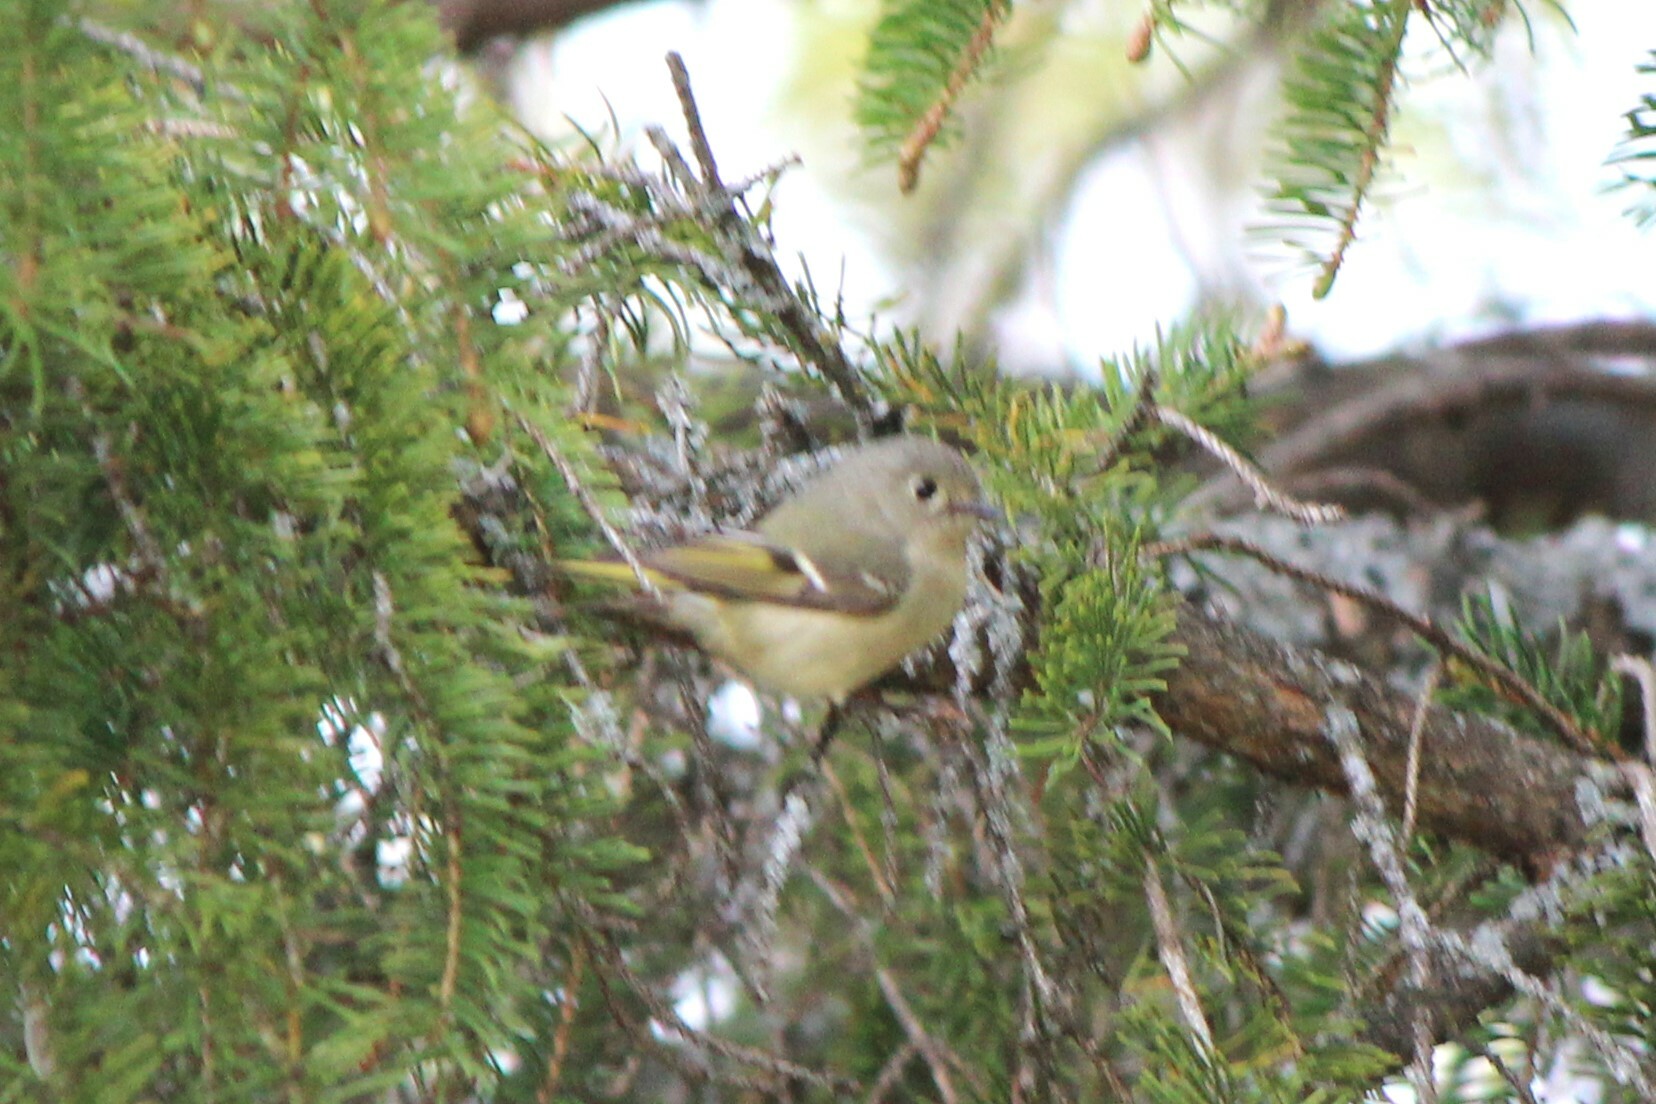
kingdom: Animalia
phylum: Chordata
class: Aves
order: Passeriformes
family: Regulidae
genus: Regulus
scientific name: Regulus calendula
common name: Ruby-crowned kinglet
